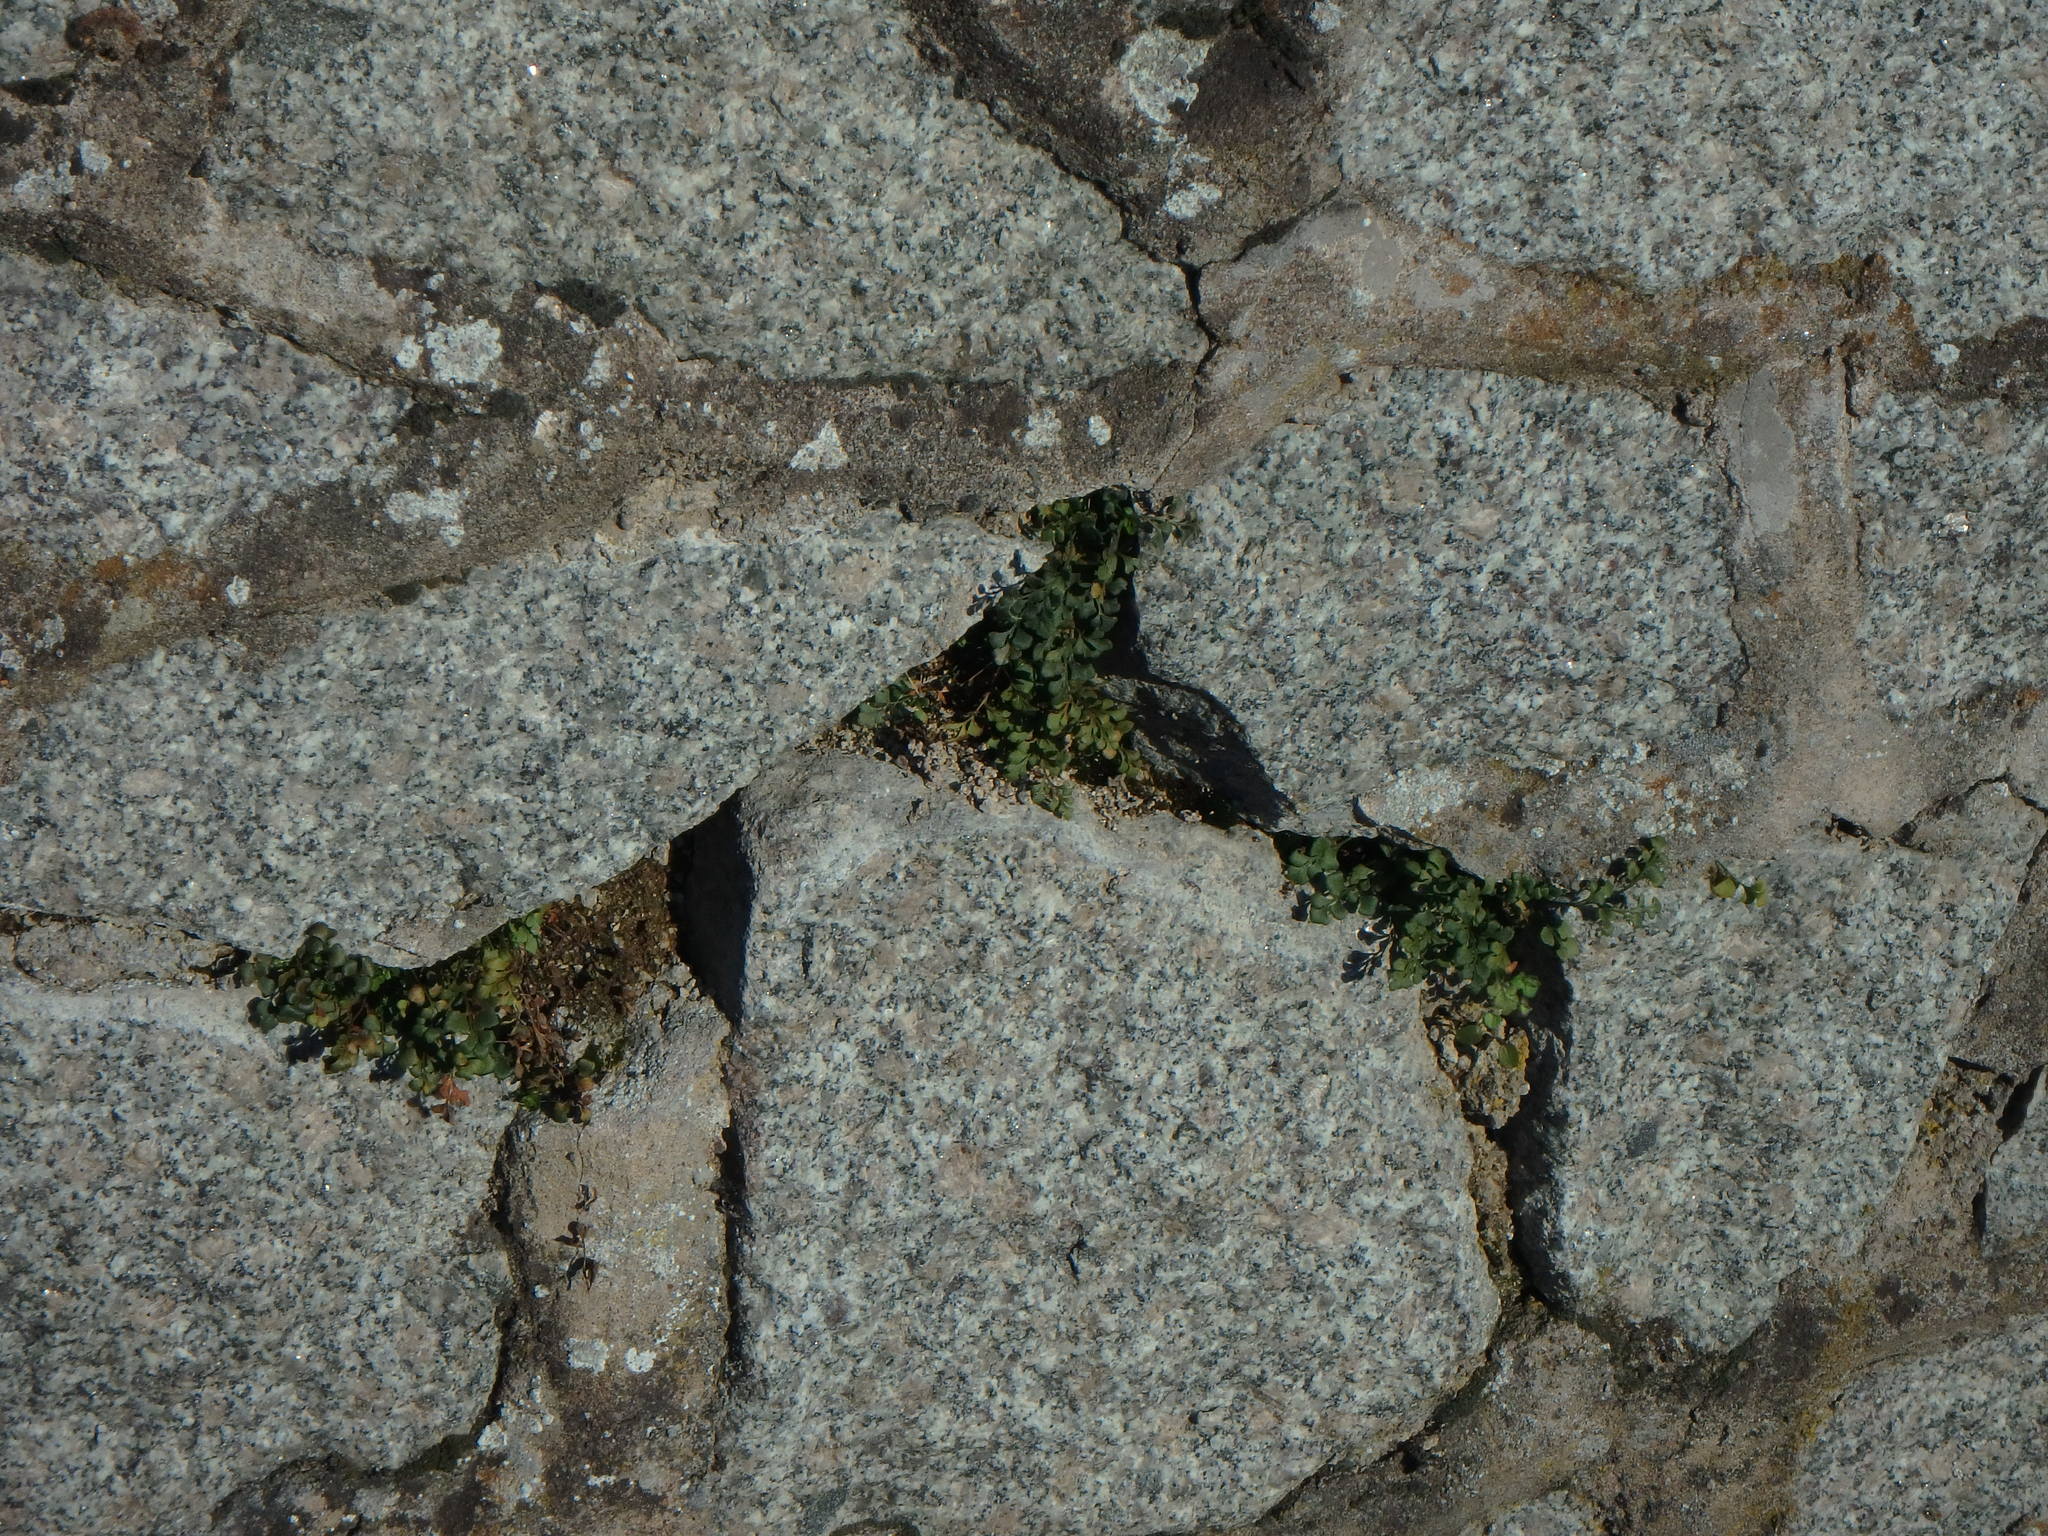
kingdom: Plantae
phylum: Tracheophyta
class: Polypodiopsida
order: Polypodiales
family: Aspleniaceae
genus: Asplenium
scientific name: Asplenium ruta-muraria
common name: Wall-rue
